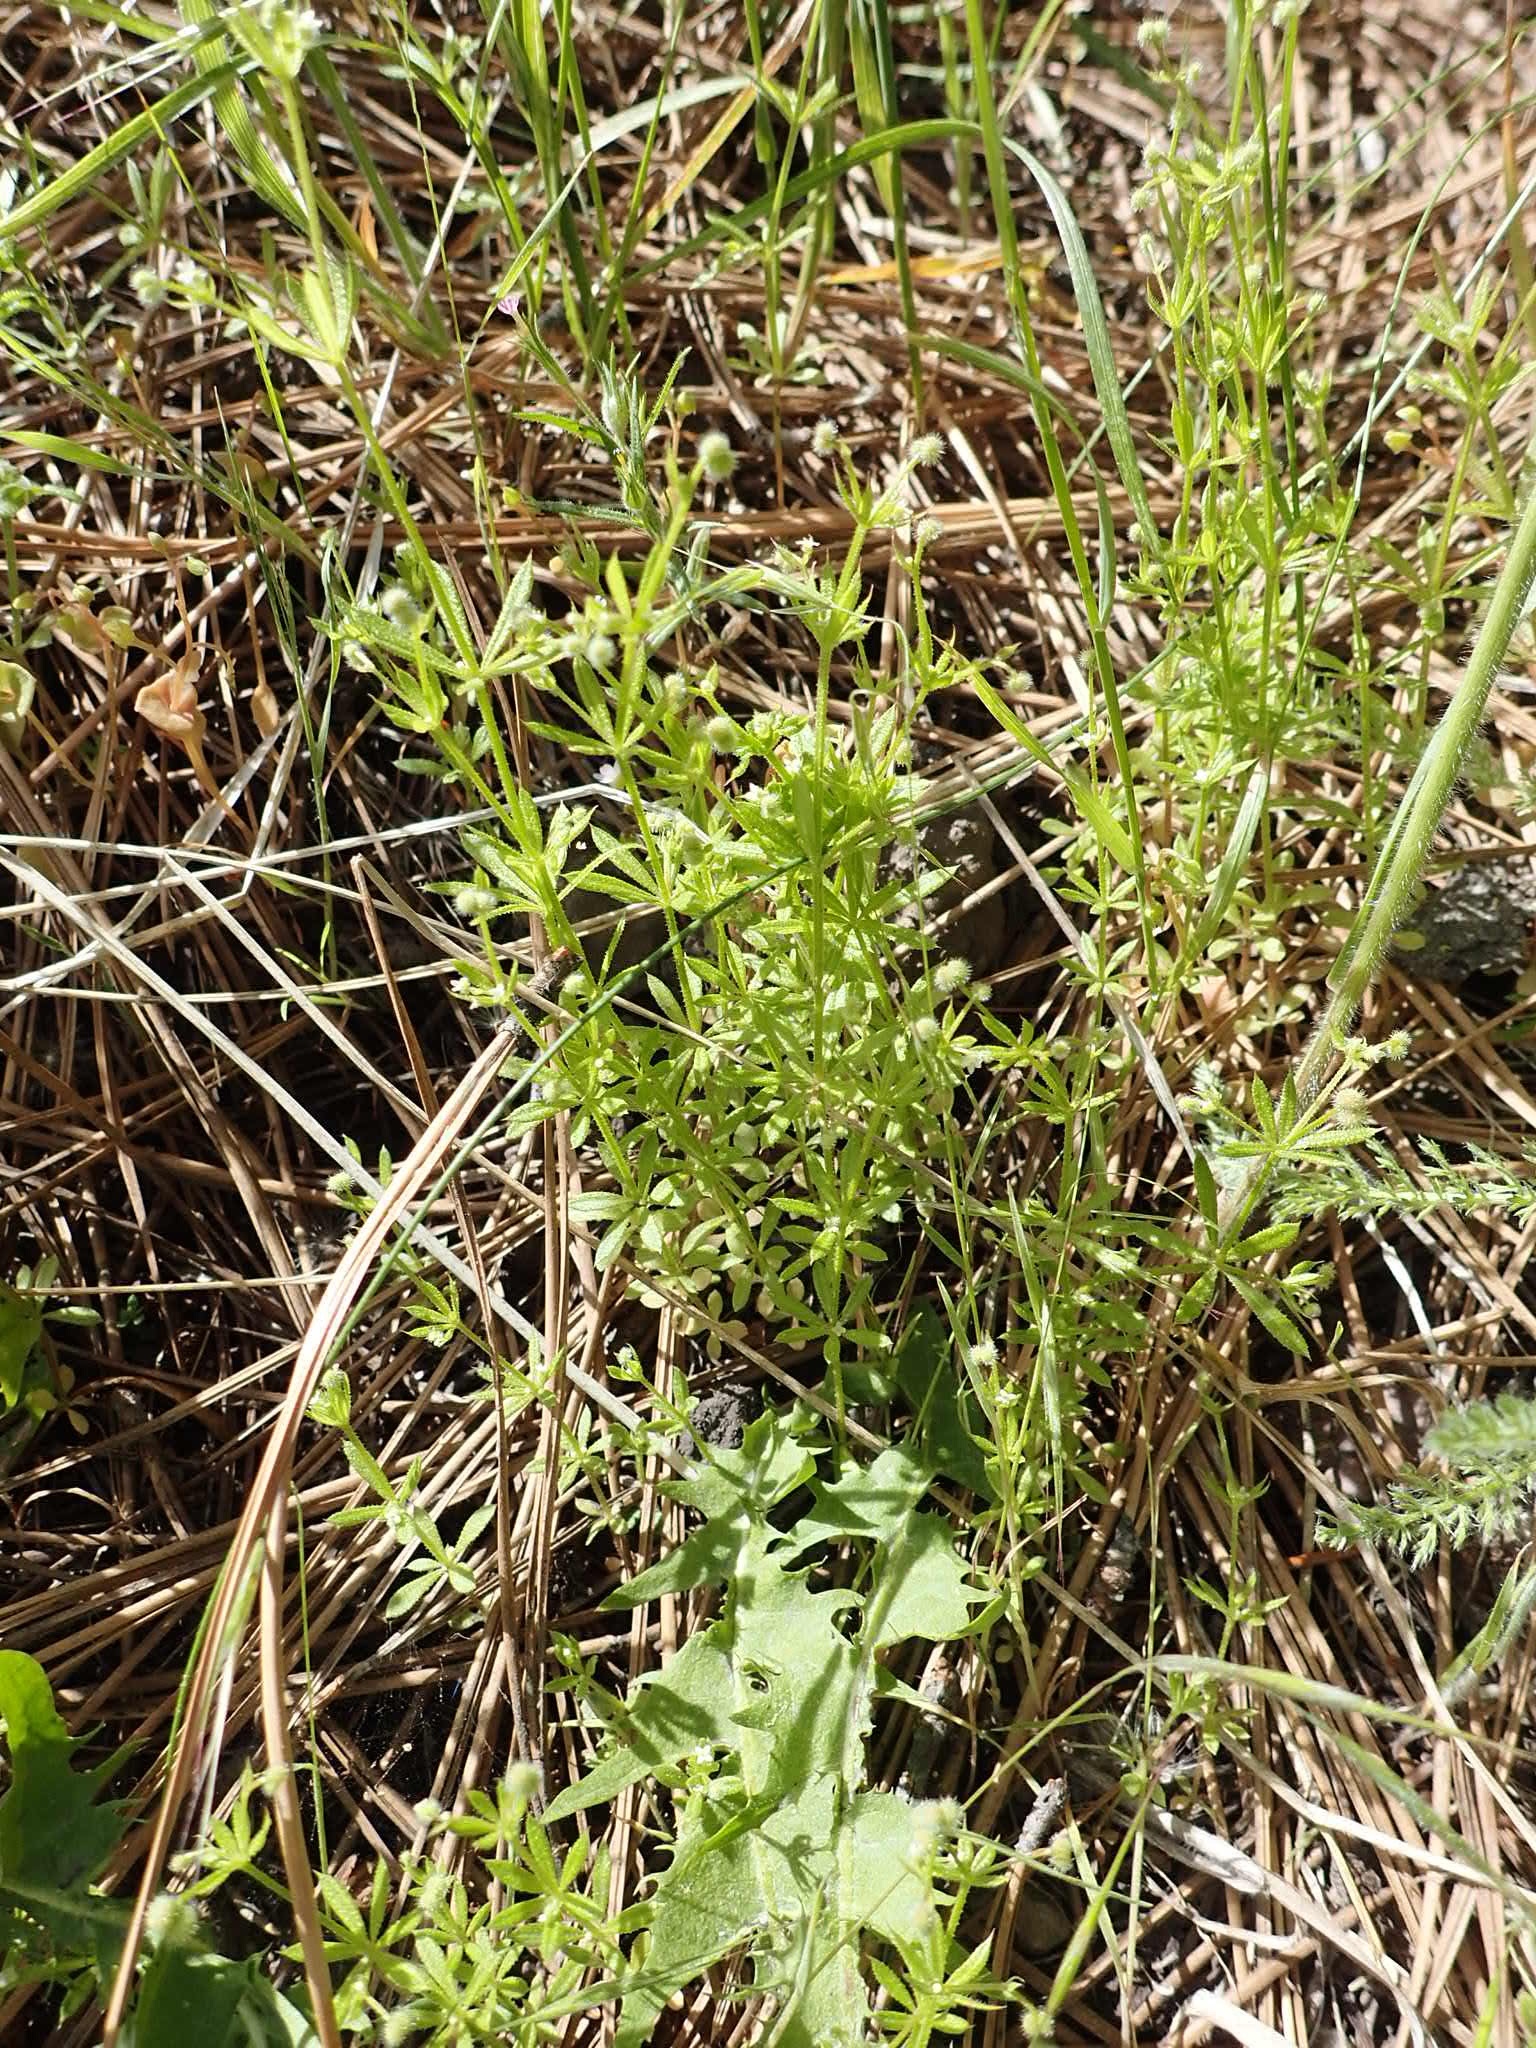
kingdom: Plantae
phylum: Tracheophyta
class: Magnoliopsida
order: Gentianales
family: Rubiaceae
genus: Galium
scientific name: Galium aparine
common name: Cleavers
